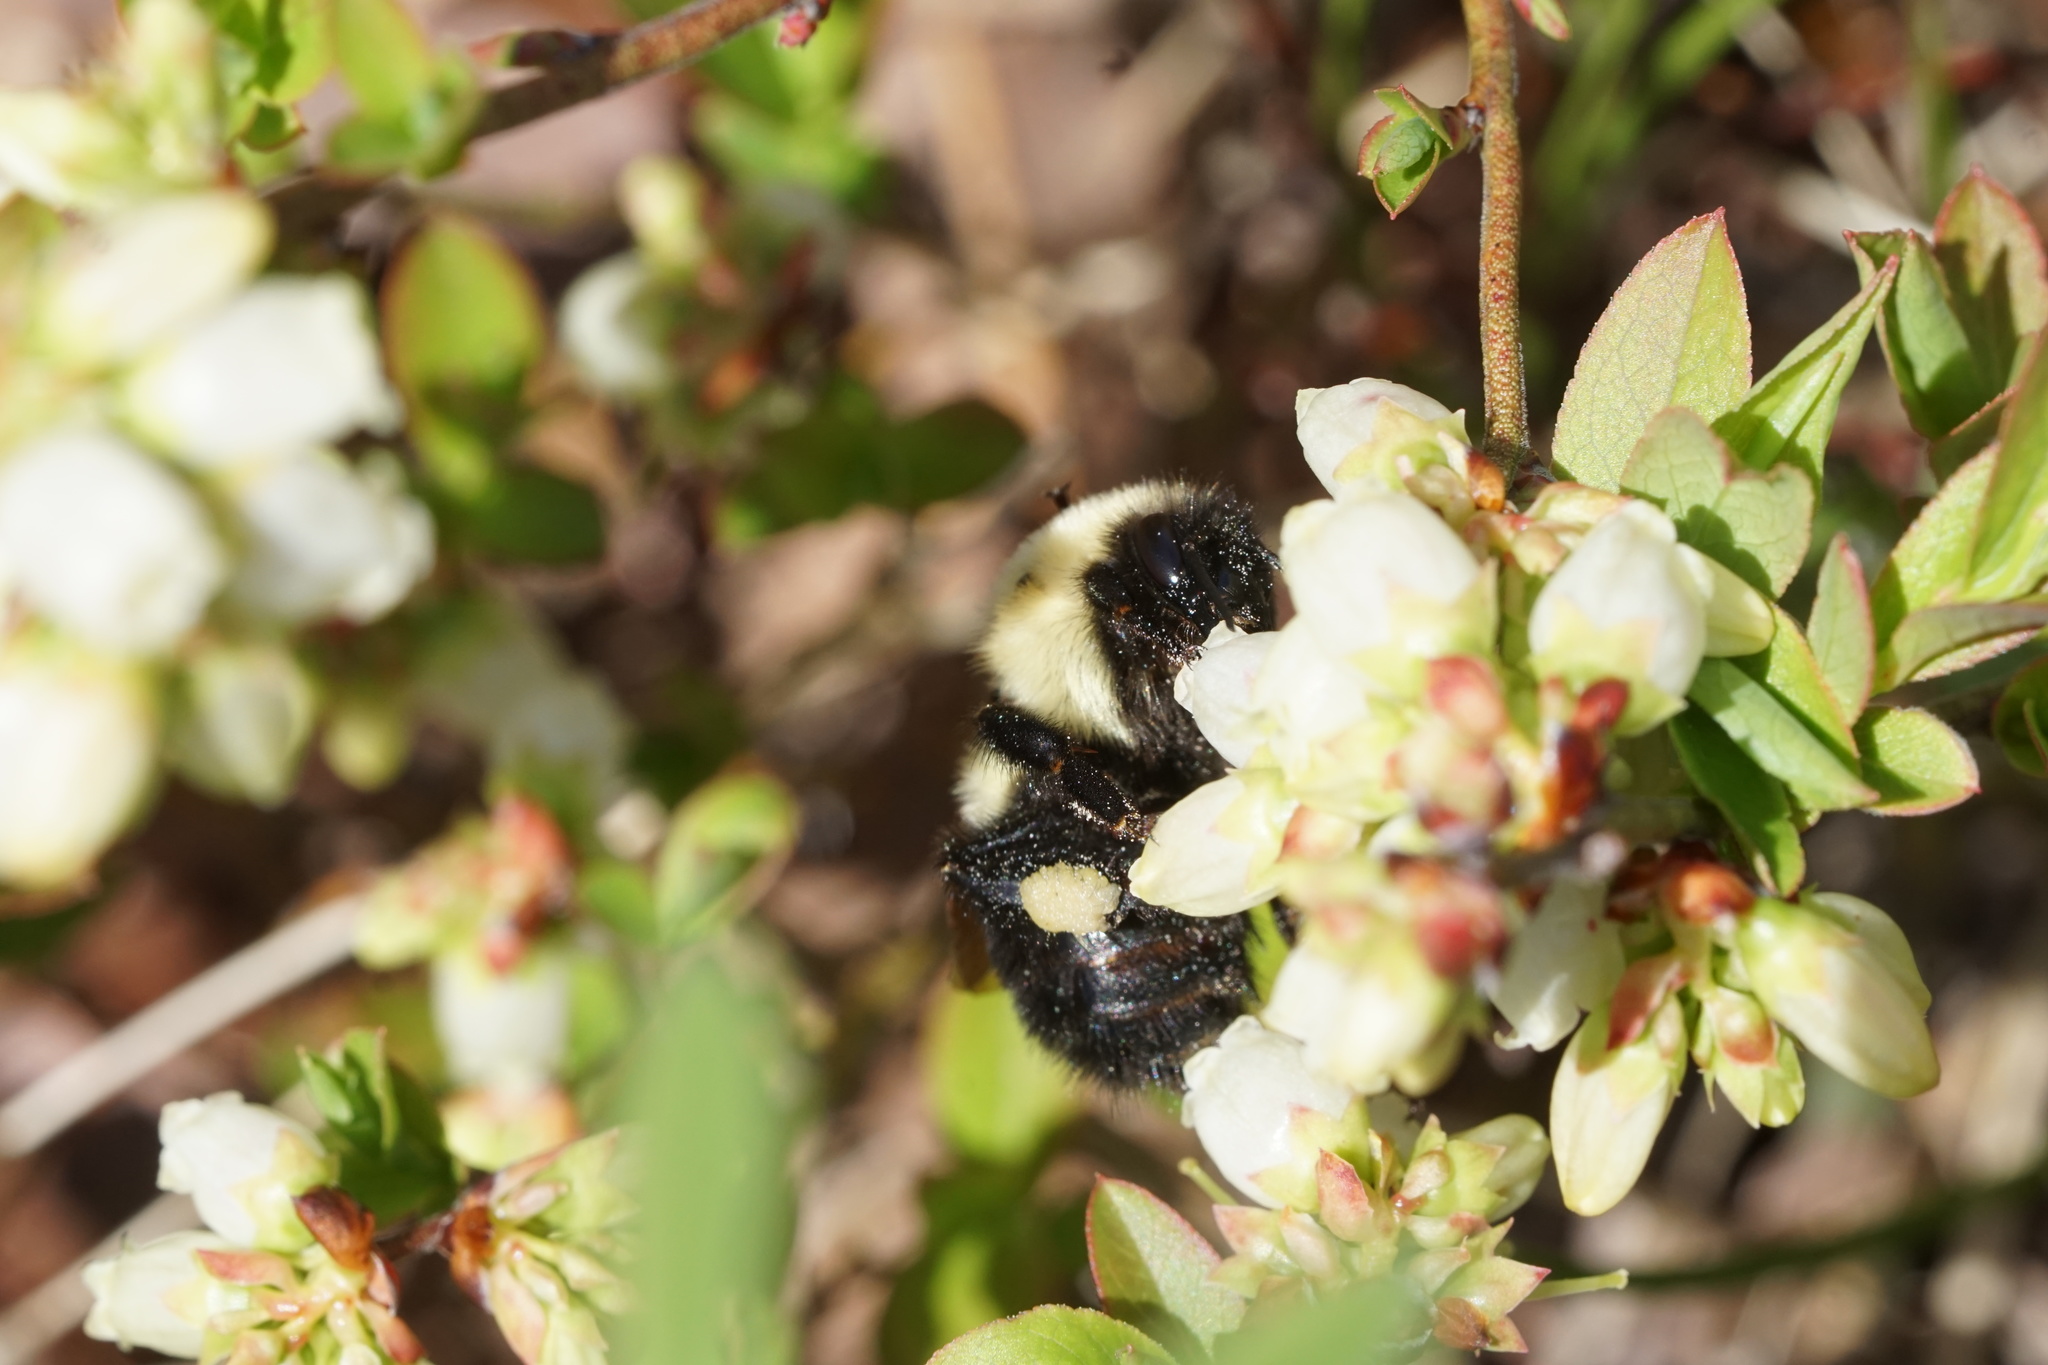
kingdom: Animalia
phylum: Arthropoda
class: Insecta
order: Hymenoptera
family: Apidae
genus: Bombus
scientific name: Bombus bimaculatus
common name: Two-spotted bumble bee
